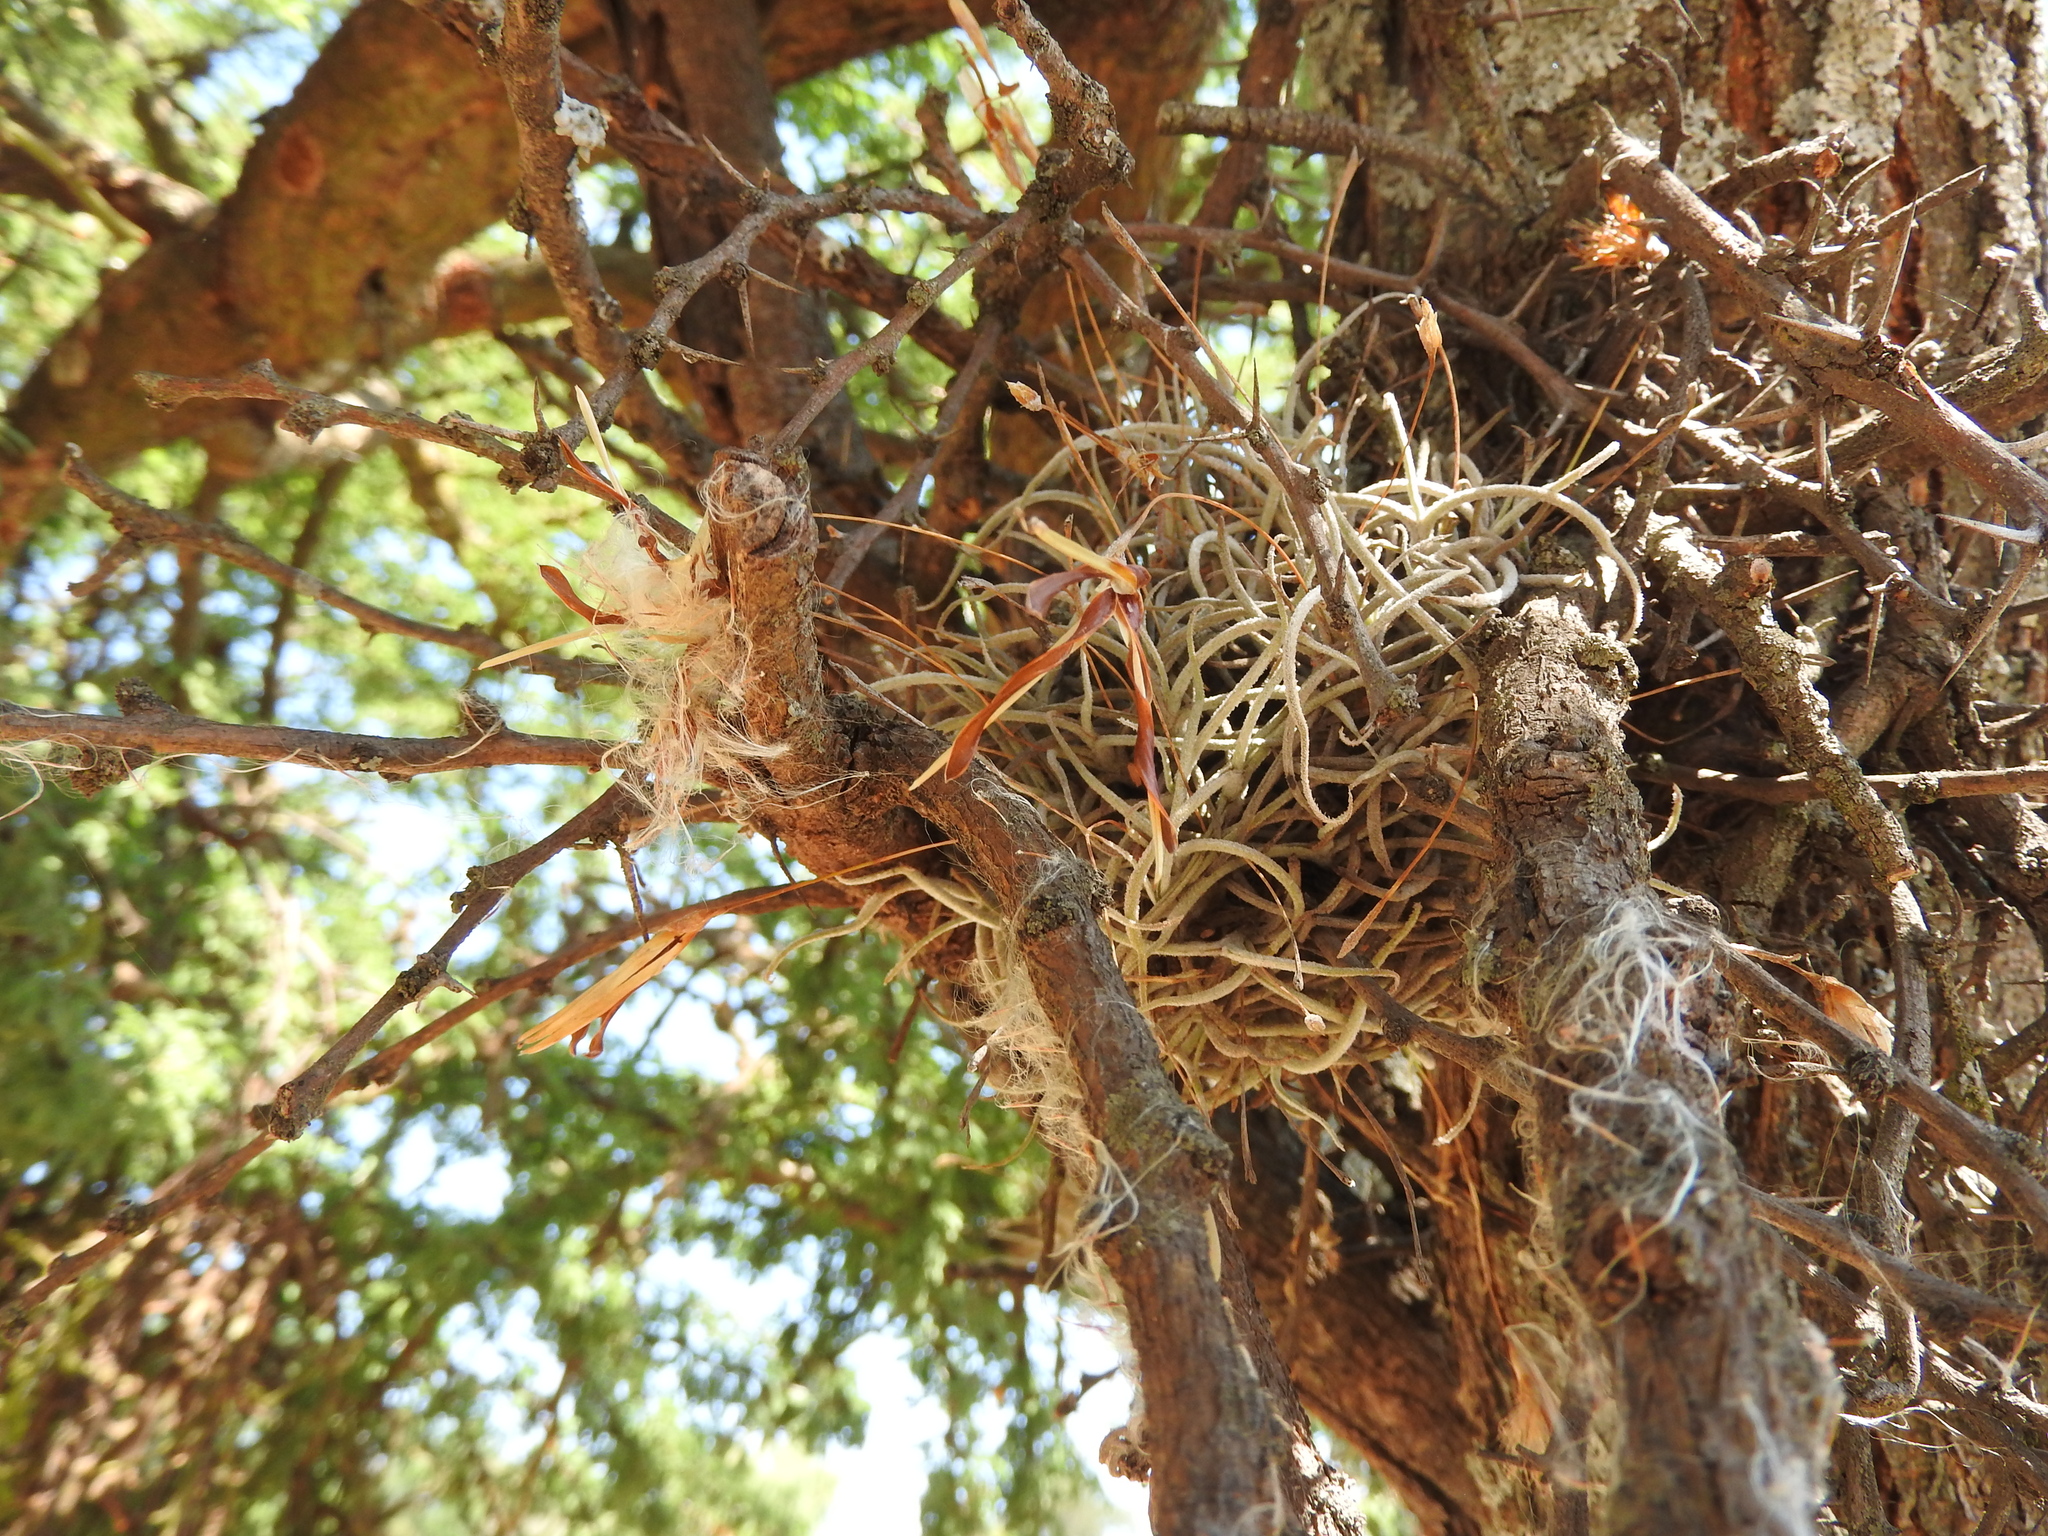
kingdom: Plantae
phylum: Tracheophyta
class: Liliopsida
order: Poales
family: Bromeliaceae
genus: Tillandsia
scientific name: Tillandsia recurvata
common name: Small ballmoss
